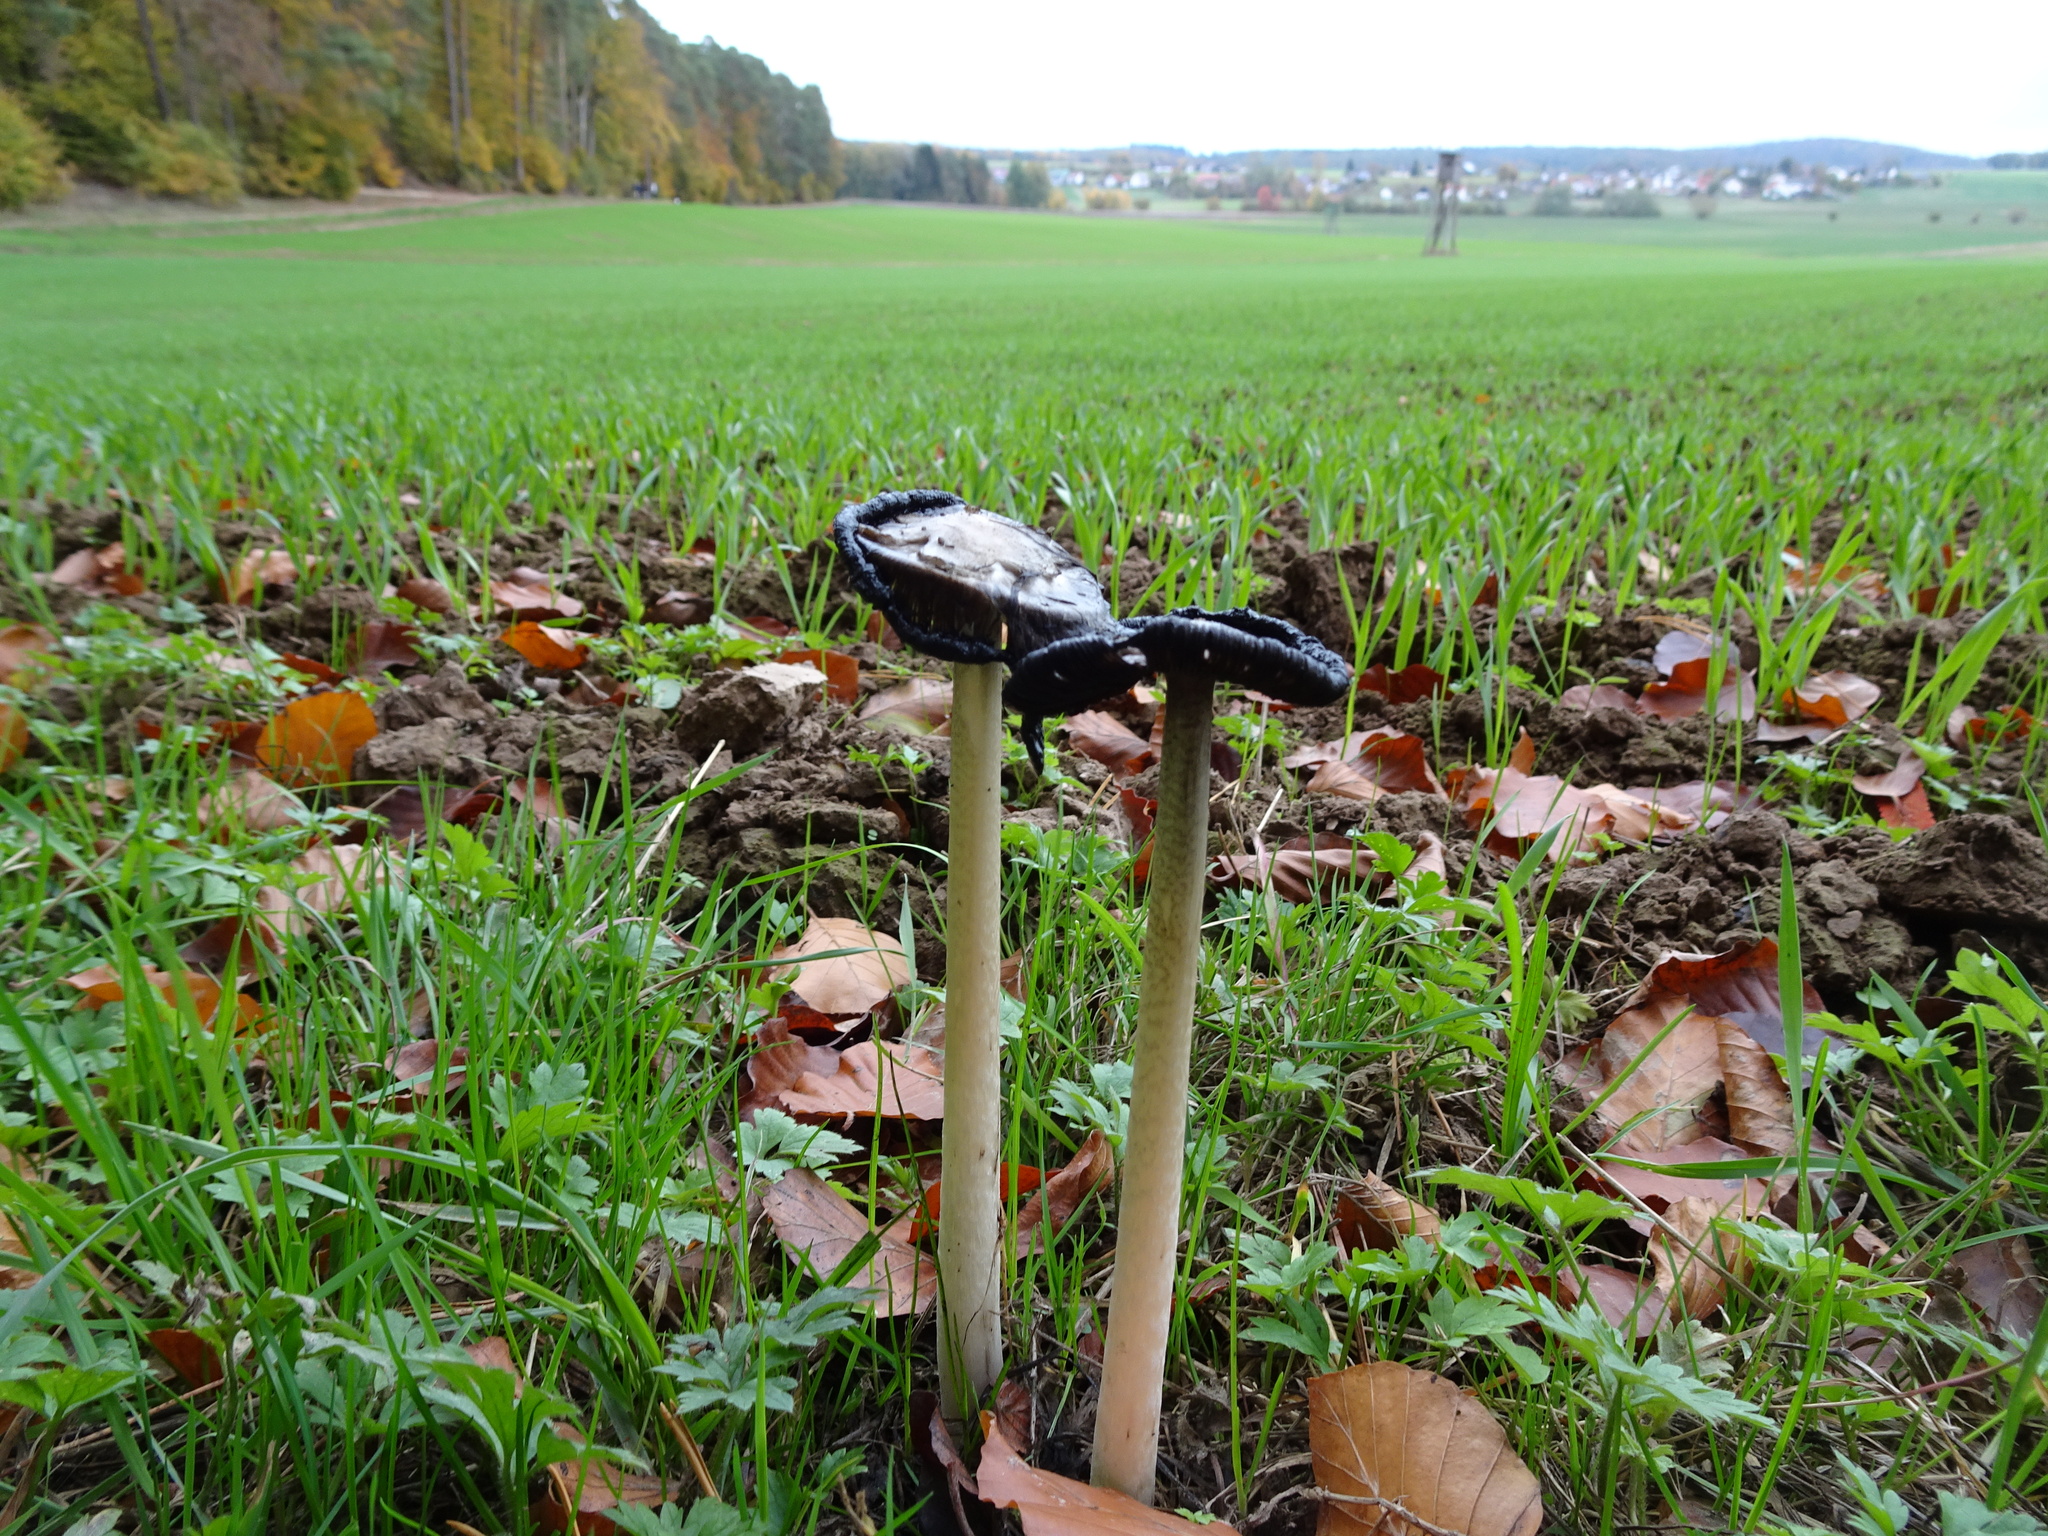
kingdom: Fungi
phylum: Basidiomycota
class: Agaricomycetes
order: Agaricales
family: Agaricaceae
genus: Coprinus
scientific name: Coprinus comatus
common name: Lawyer's wig
